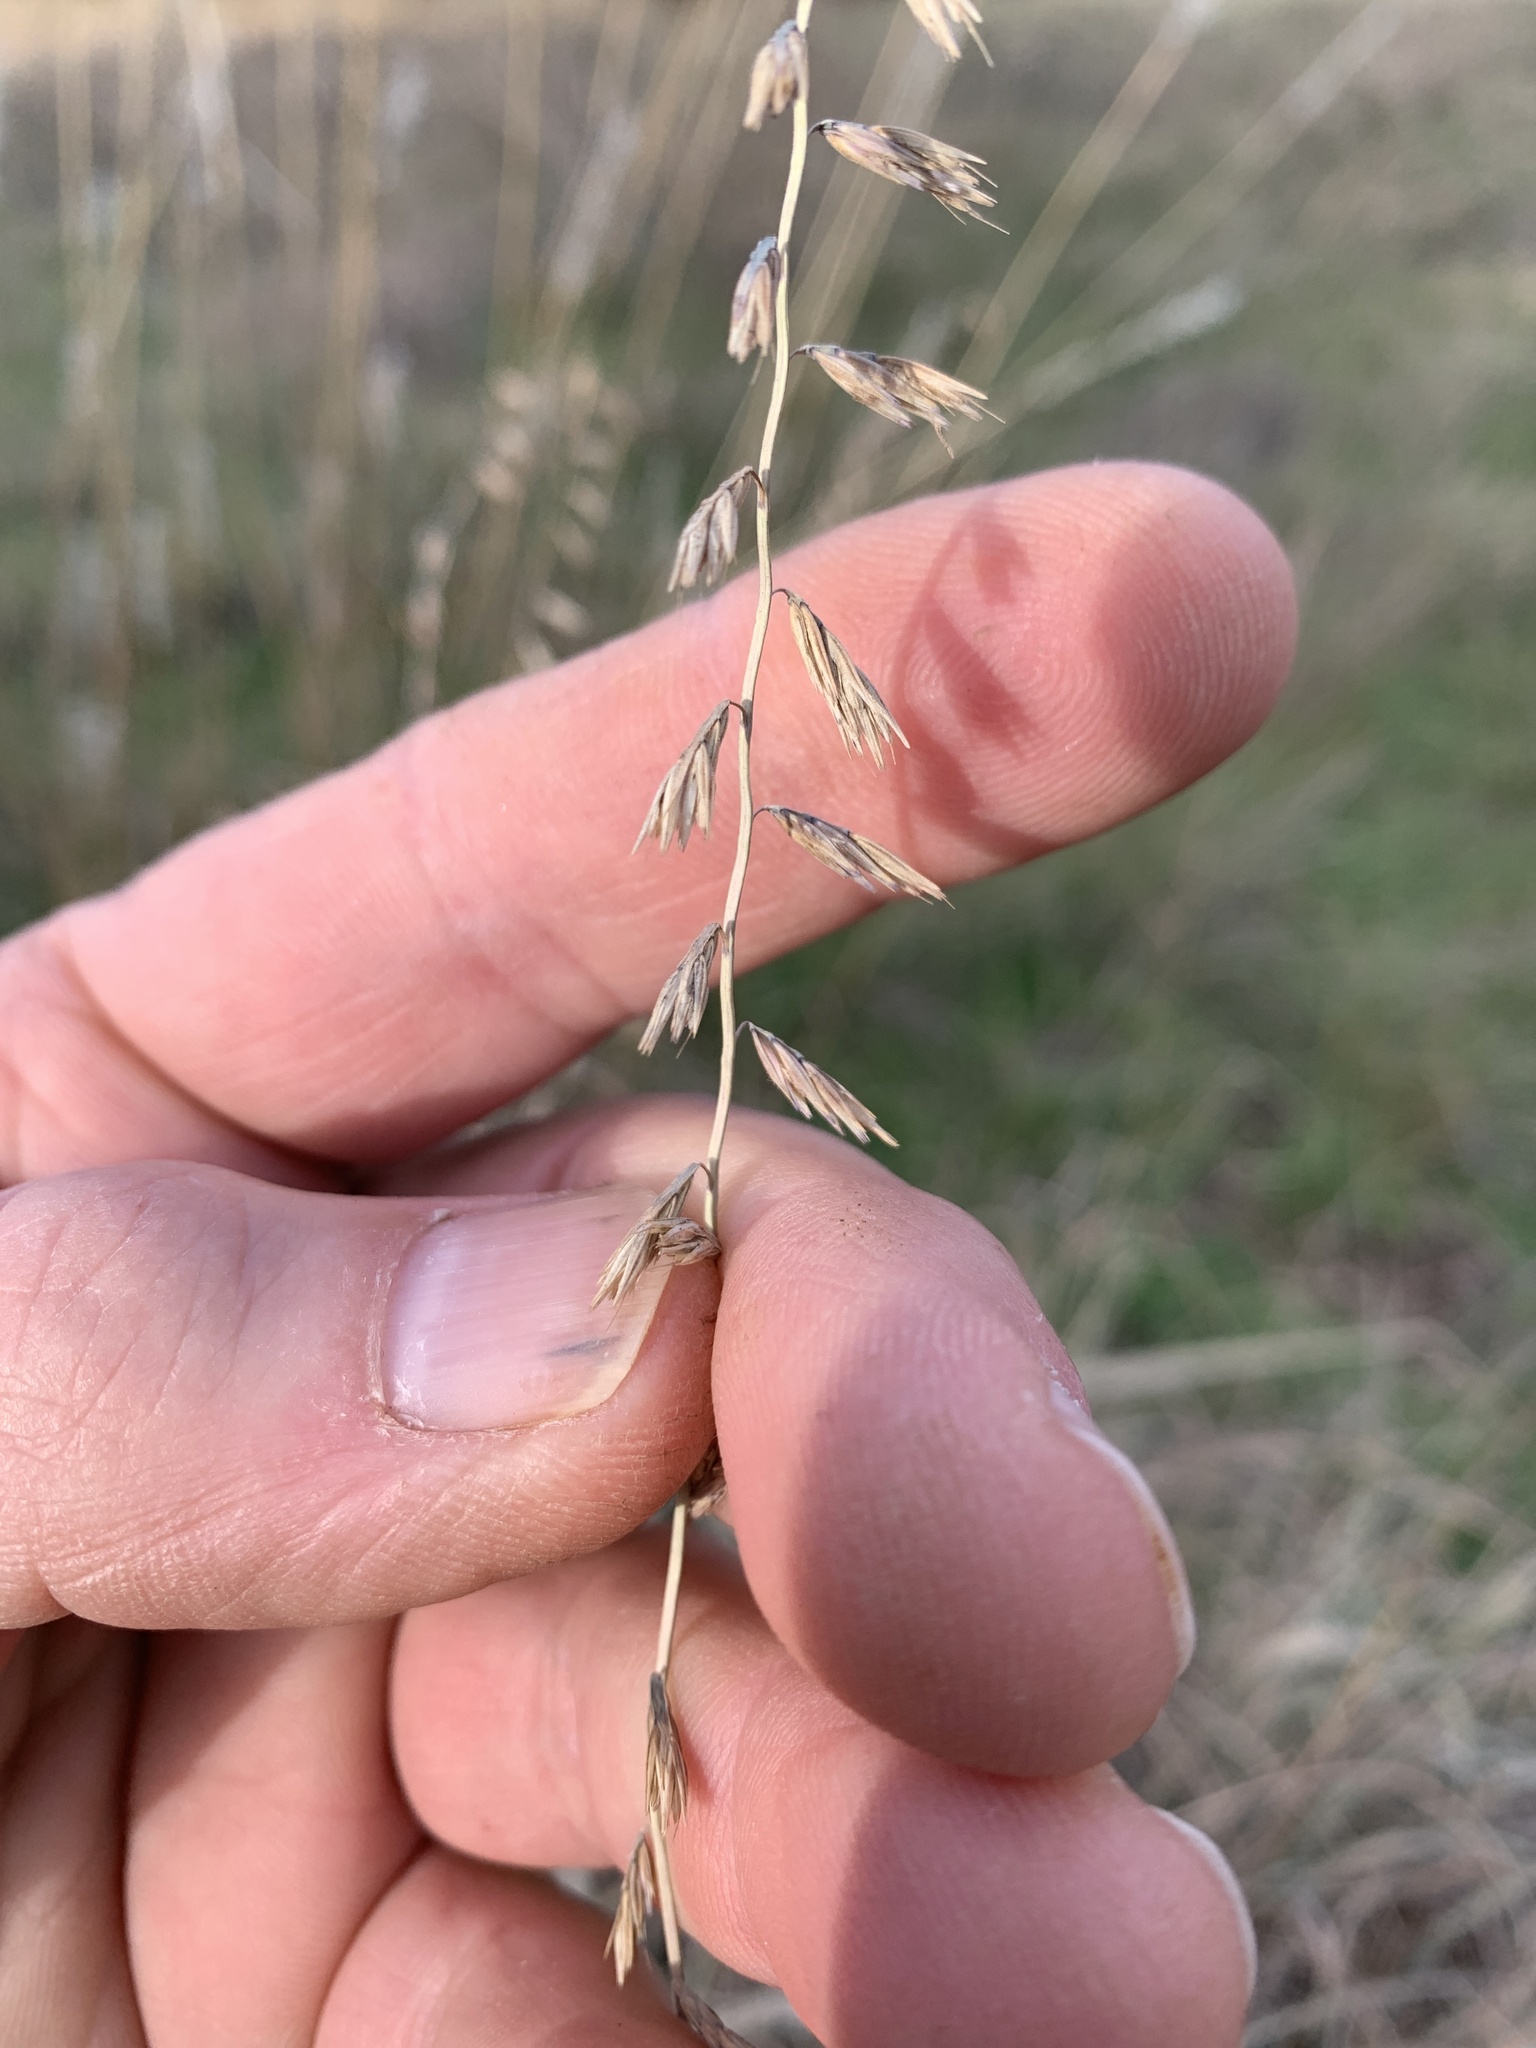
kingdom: Plantae
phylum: Tracheophyta
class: Liliopsida
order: Poales
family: Poaceae
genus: Bouteloua
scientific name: Bouteloua curtipendula
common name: Side-oats grama
